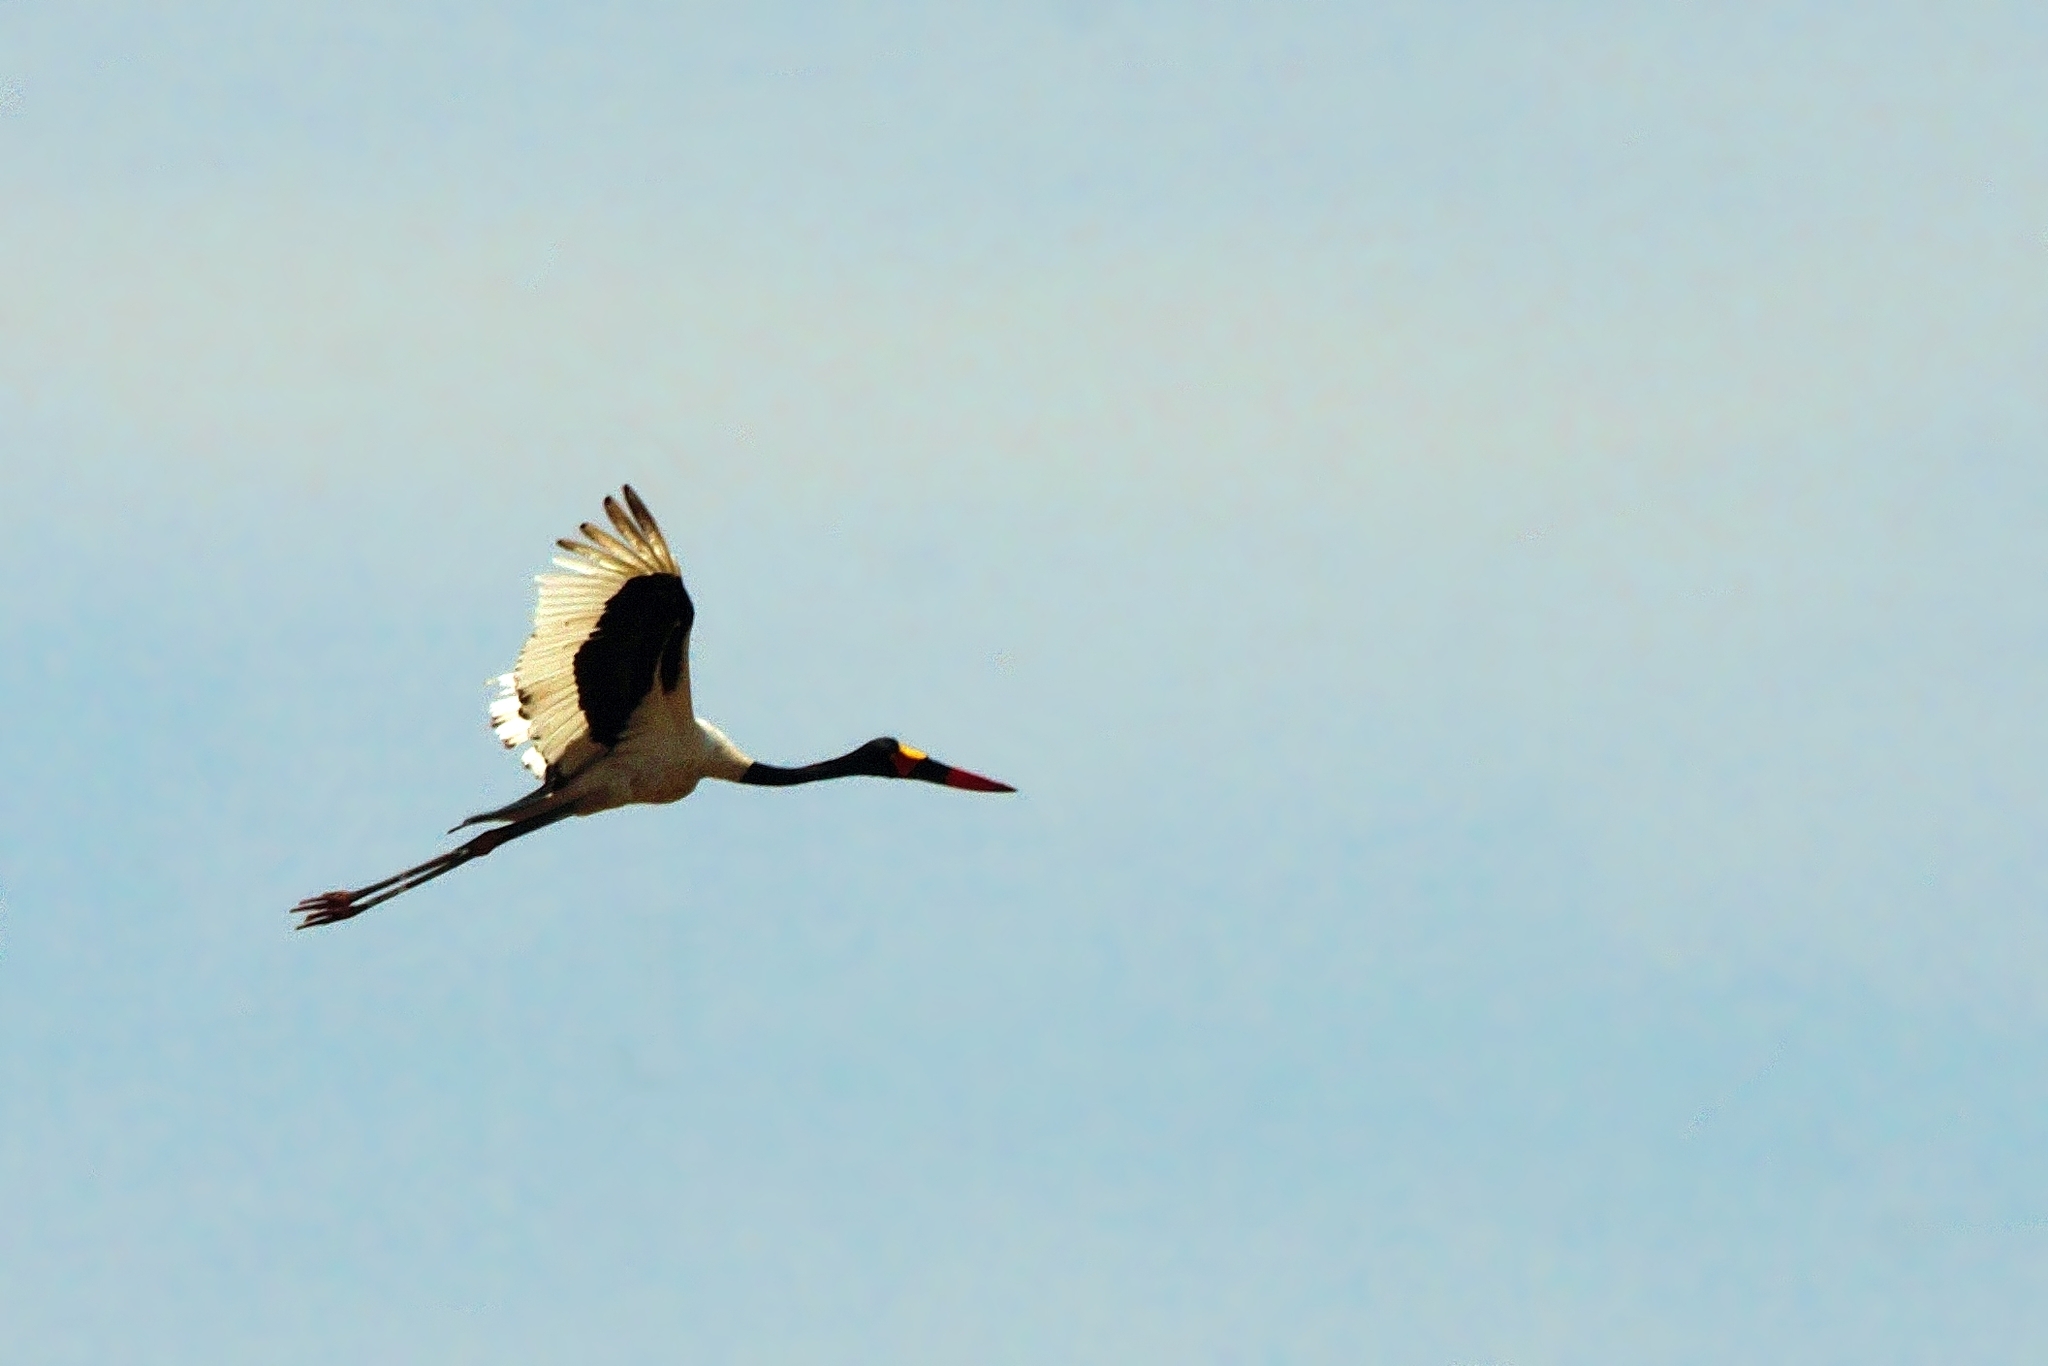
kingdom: Animalia
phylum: Chordata
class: Aves
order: Ciconiiformes
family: Ciconiidae
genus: Ephippiorhynchus
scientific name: Ephippiorhynchus senegalensis
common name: Saddle-billed stork
